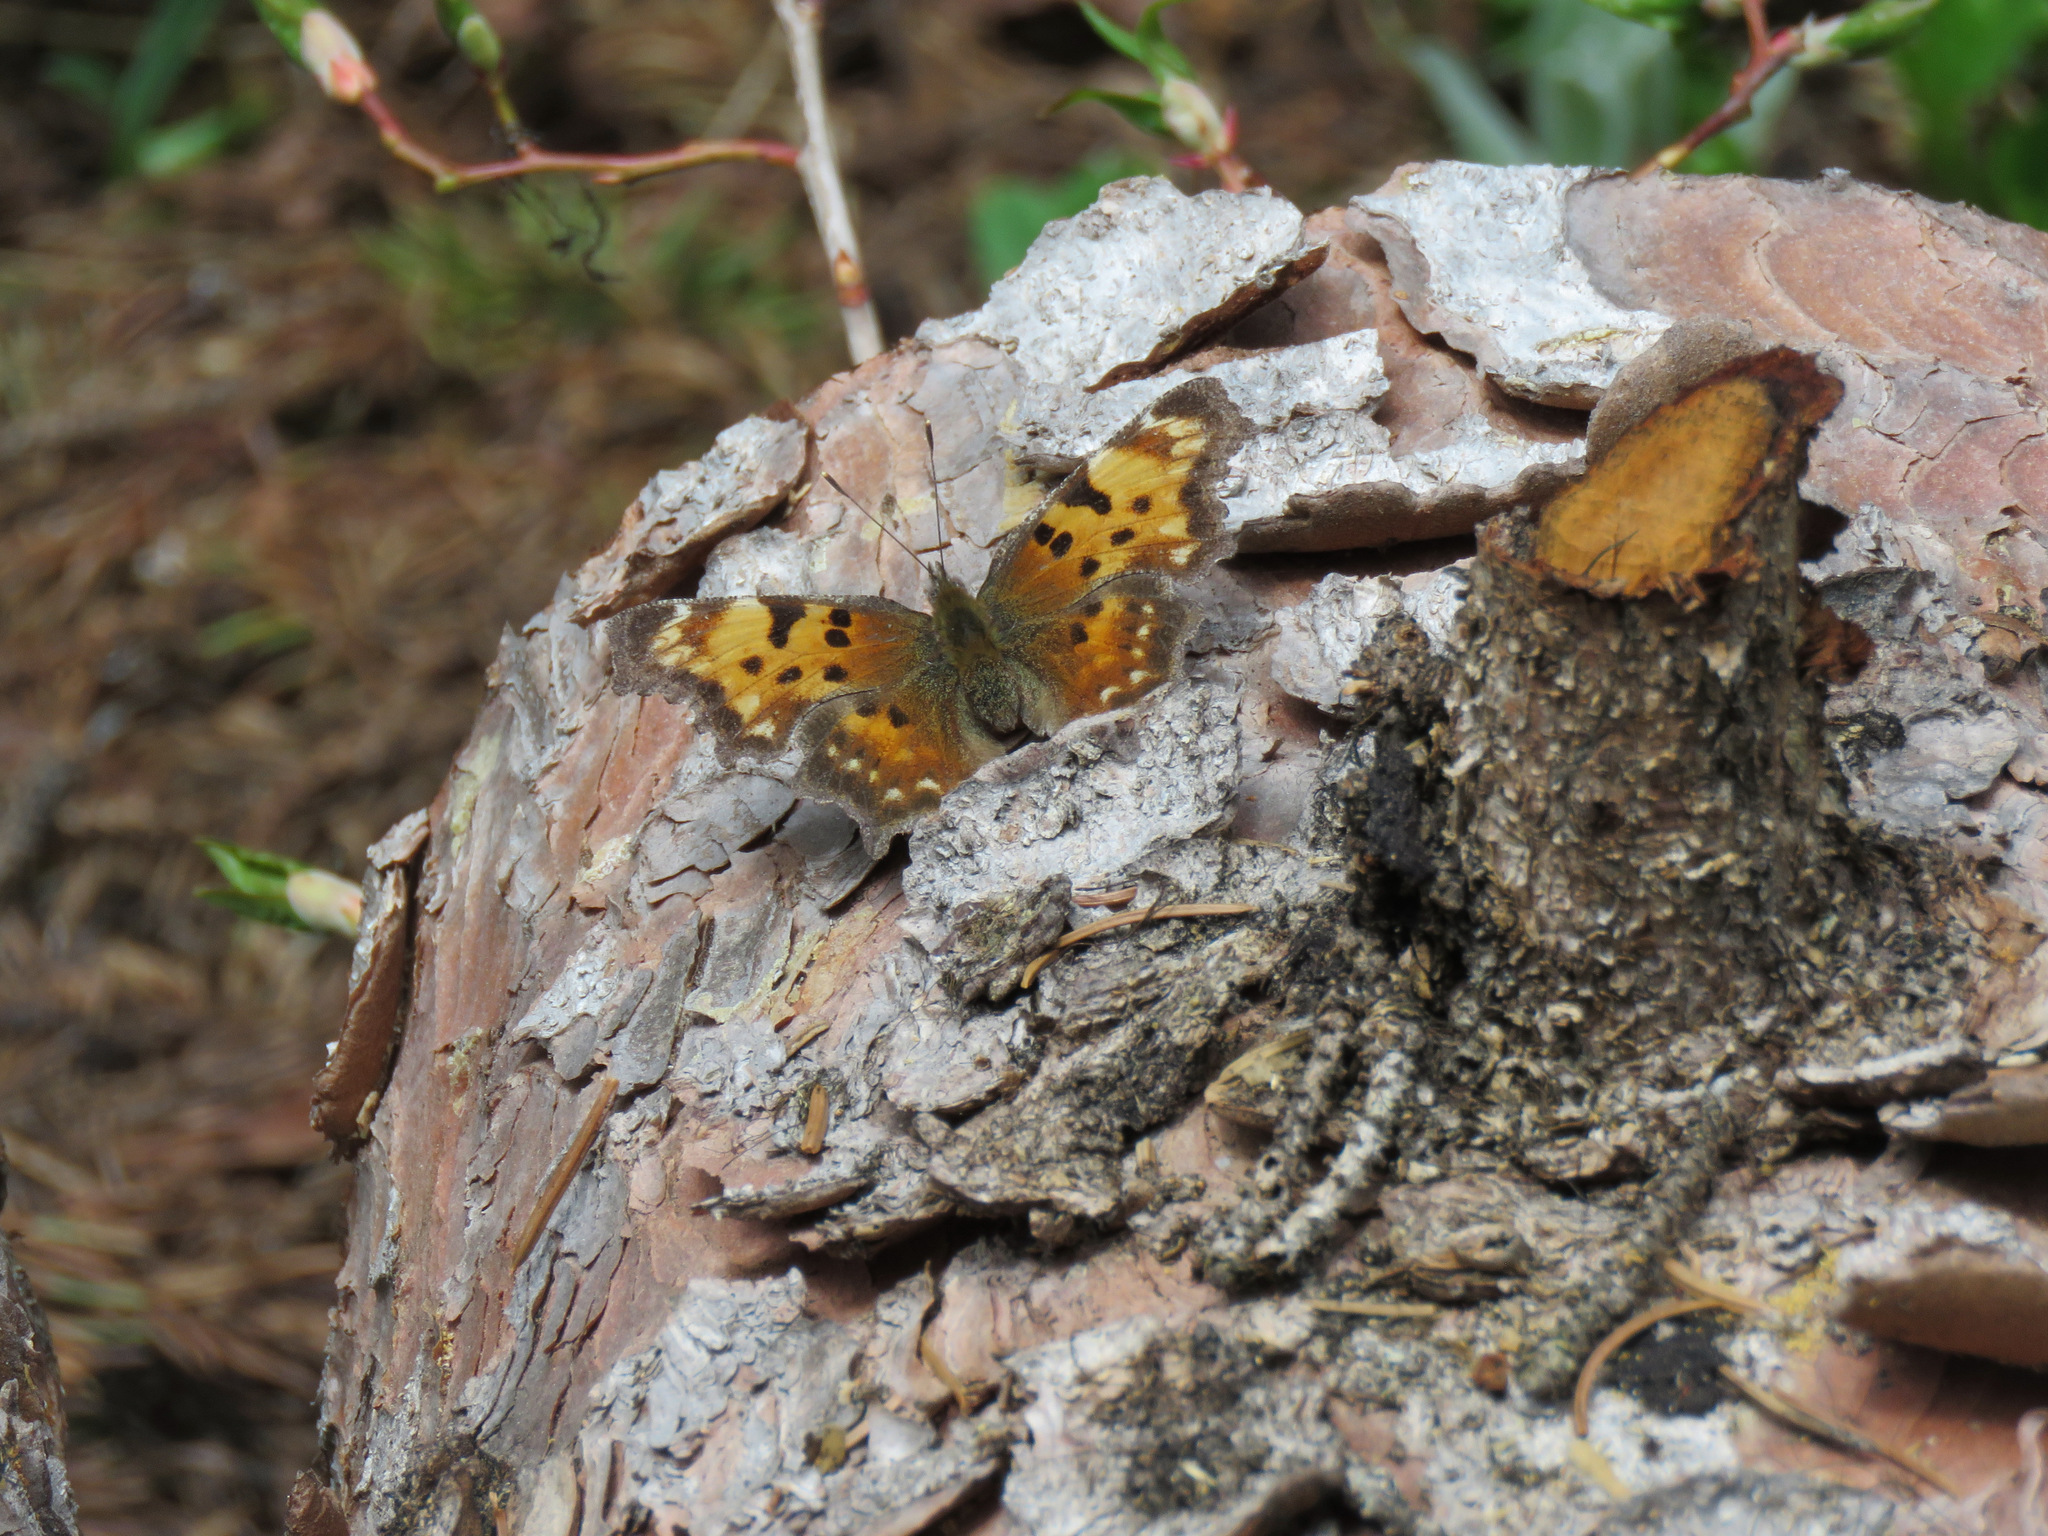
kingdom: Animalia
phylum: Arthropoda
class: Insecta
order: Lepidoptera
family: Nymphalidae
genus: Polygonia
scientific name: Polygonia faunus
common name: Green comma
